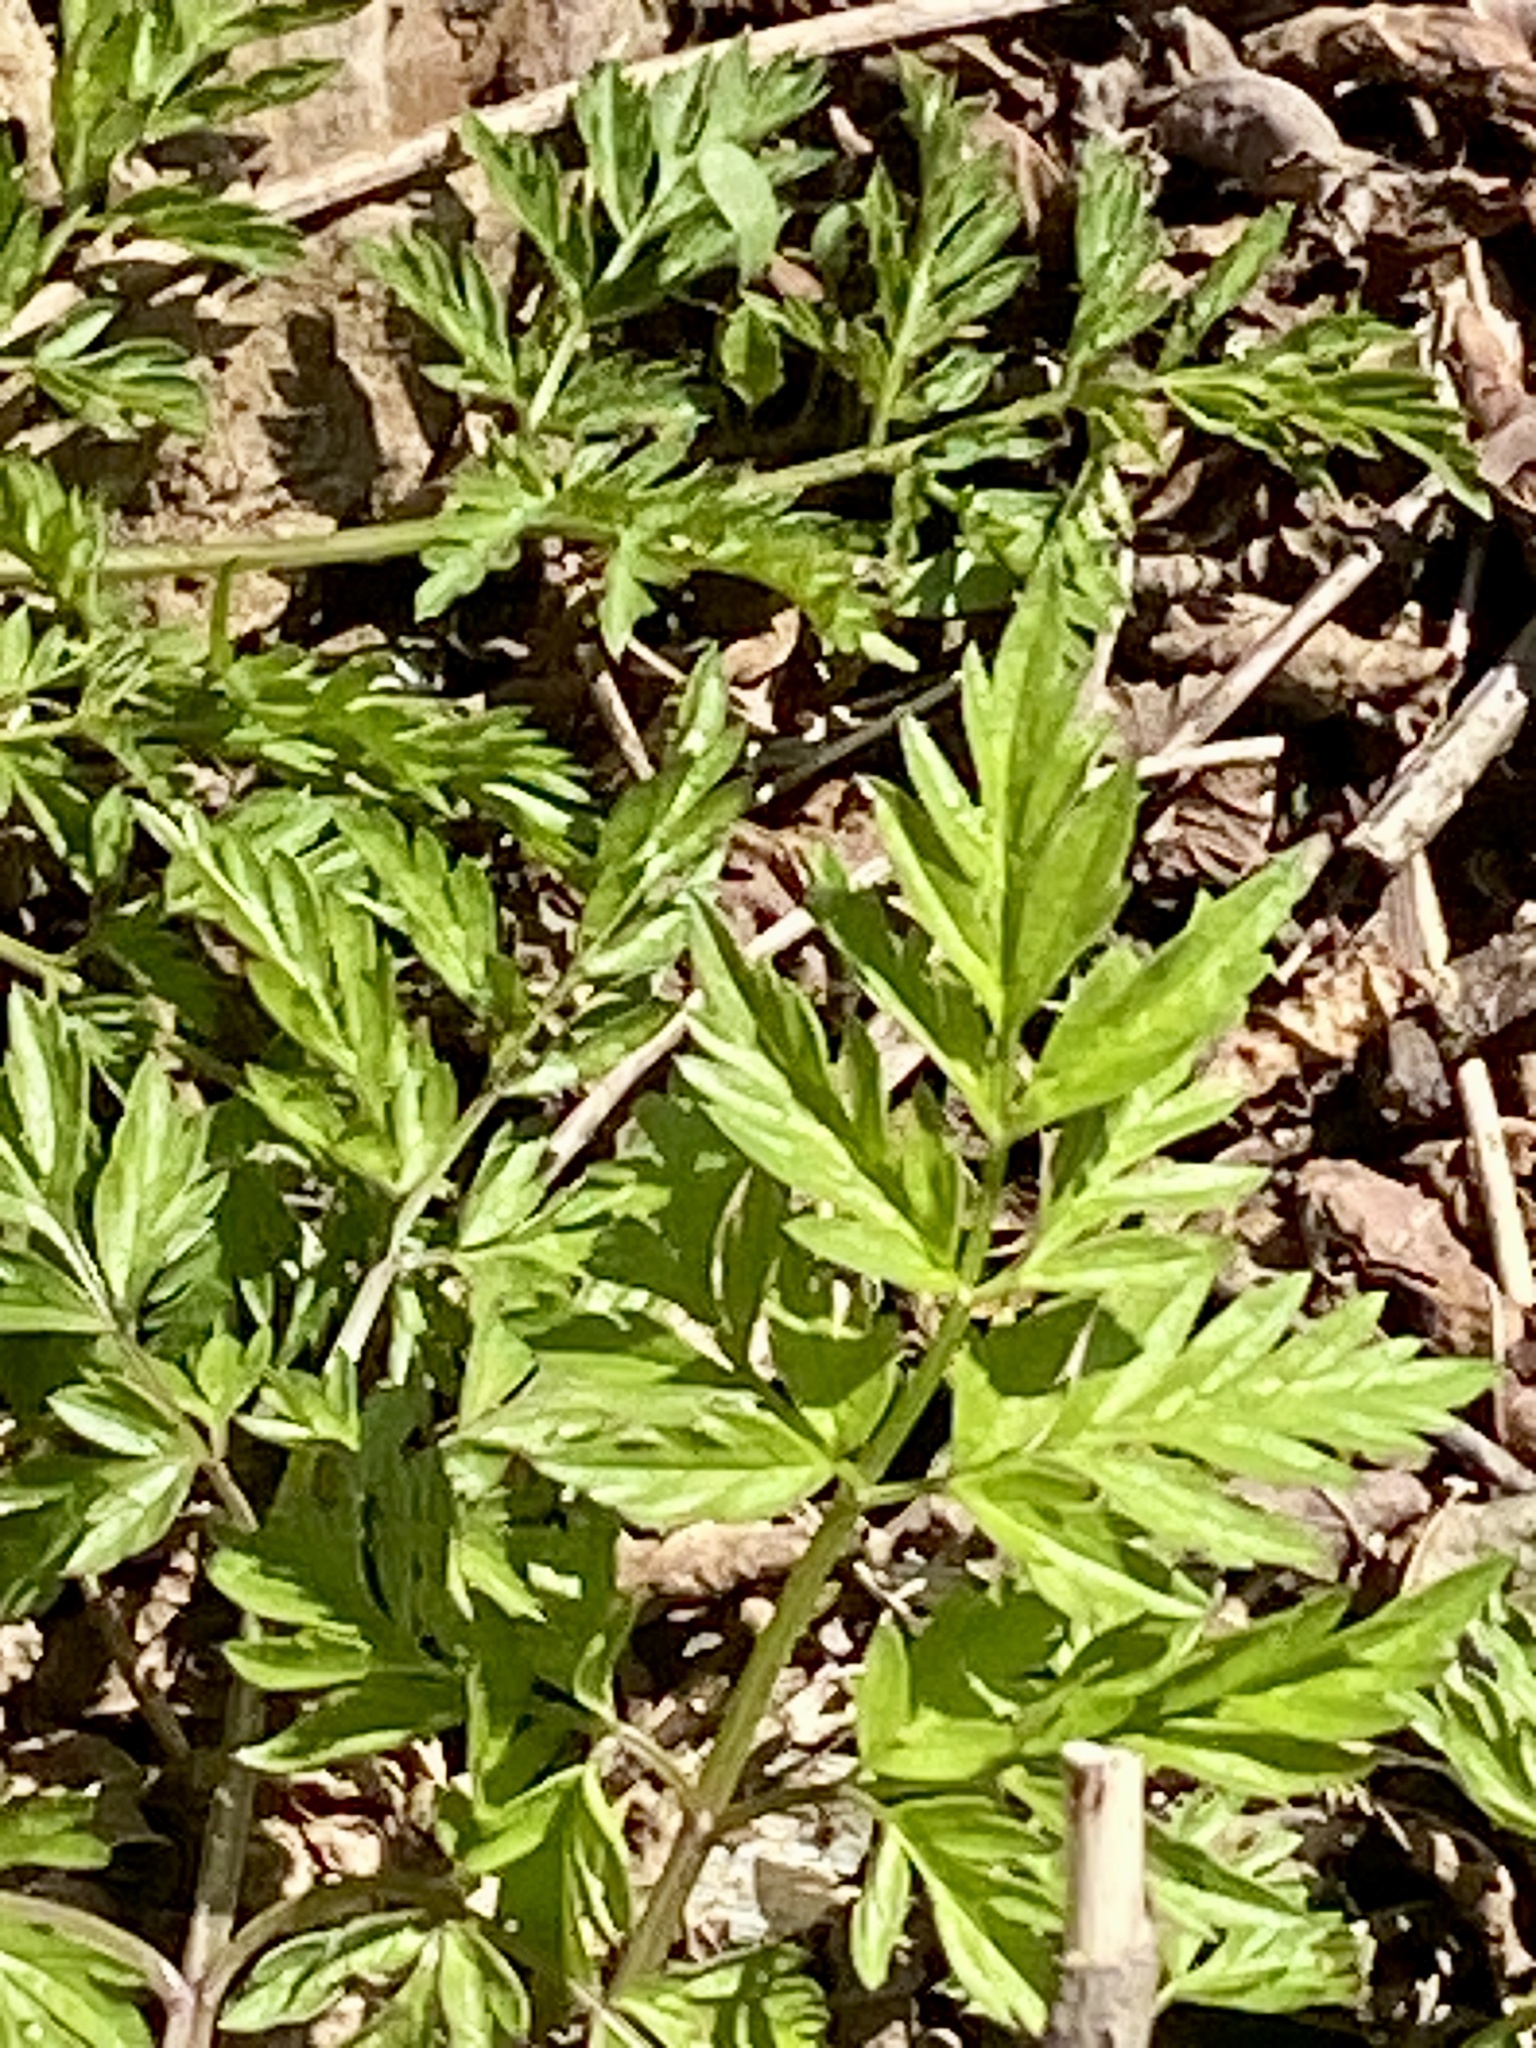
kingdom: Plantae
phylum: Tracheophyta
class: Magnoliopsida
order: Apiales
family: Apiaceae
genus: Anthriscus
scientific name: Anthriscus sylvestris
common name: Cow parsley
